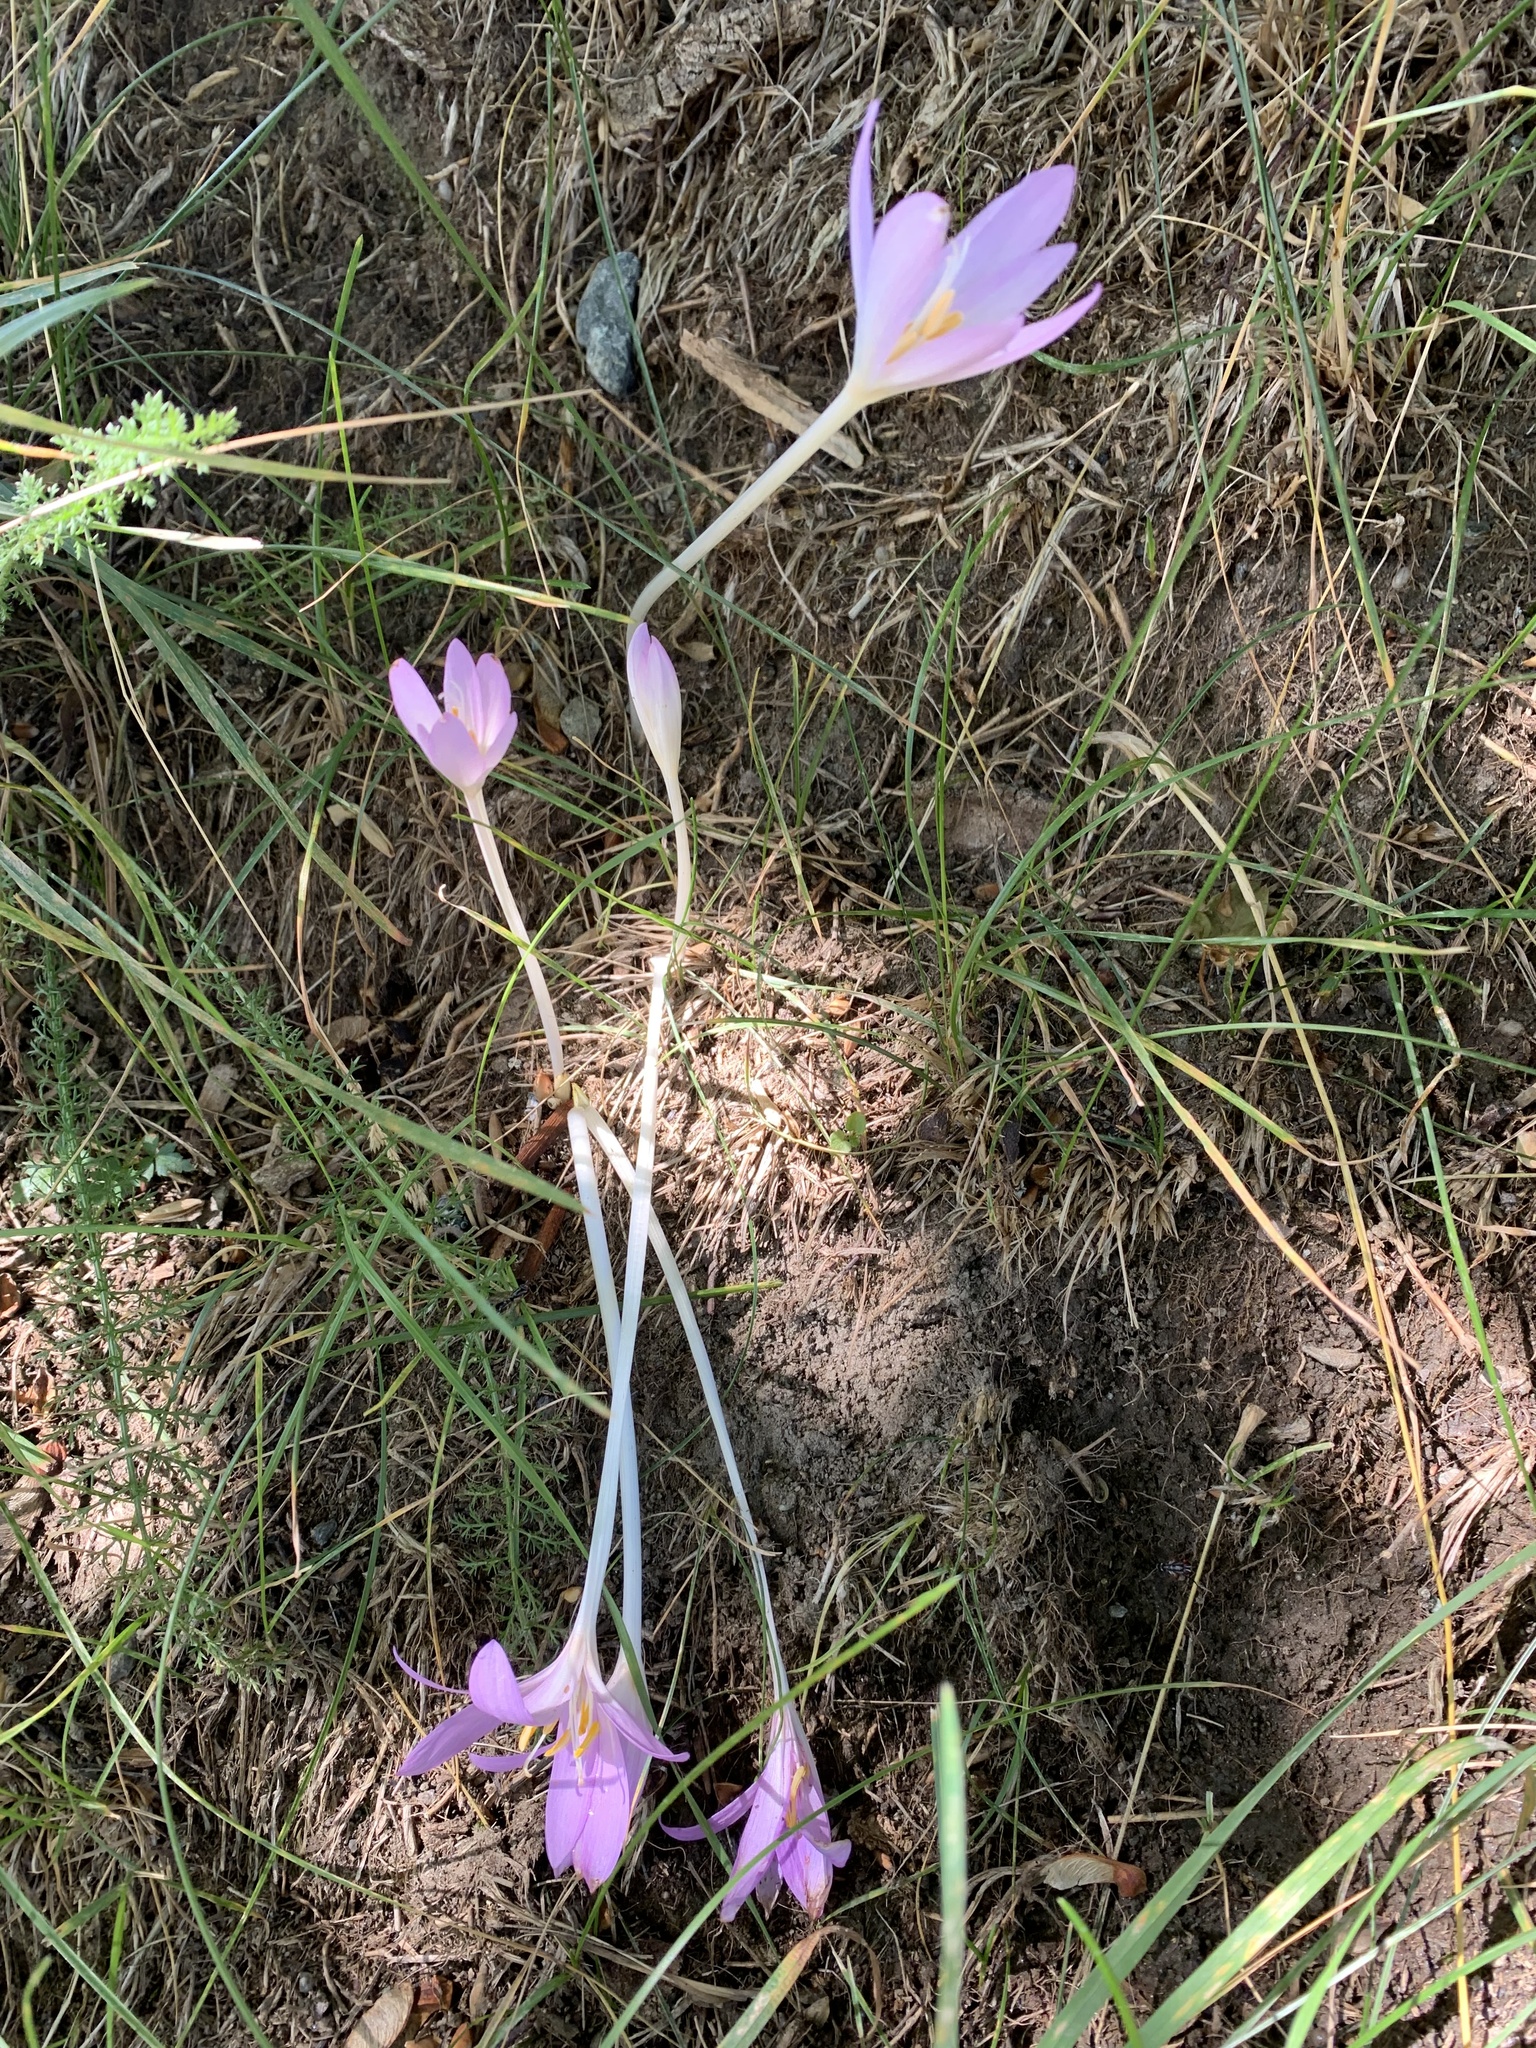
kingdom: Plantae
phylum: Tracheophyta
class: Liliopsida
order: Liliales
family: Colchicaceae
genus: Colchicum
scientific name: Colchicum autumnale
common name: Autumn crocus
